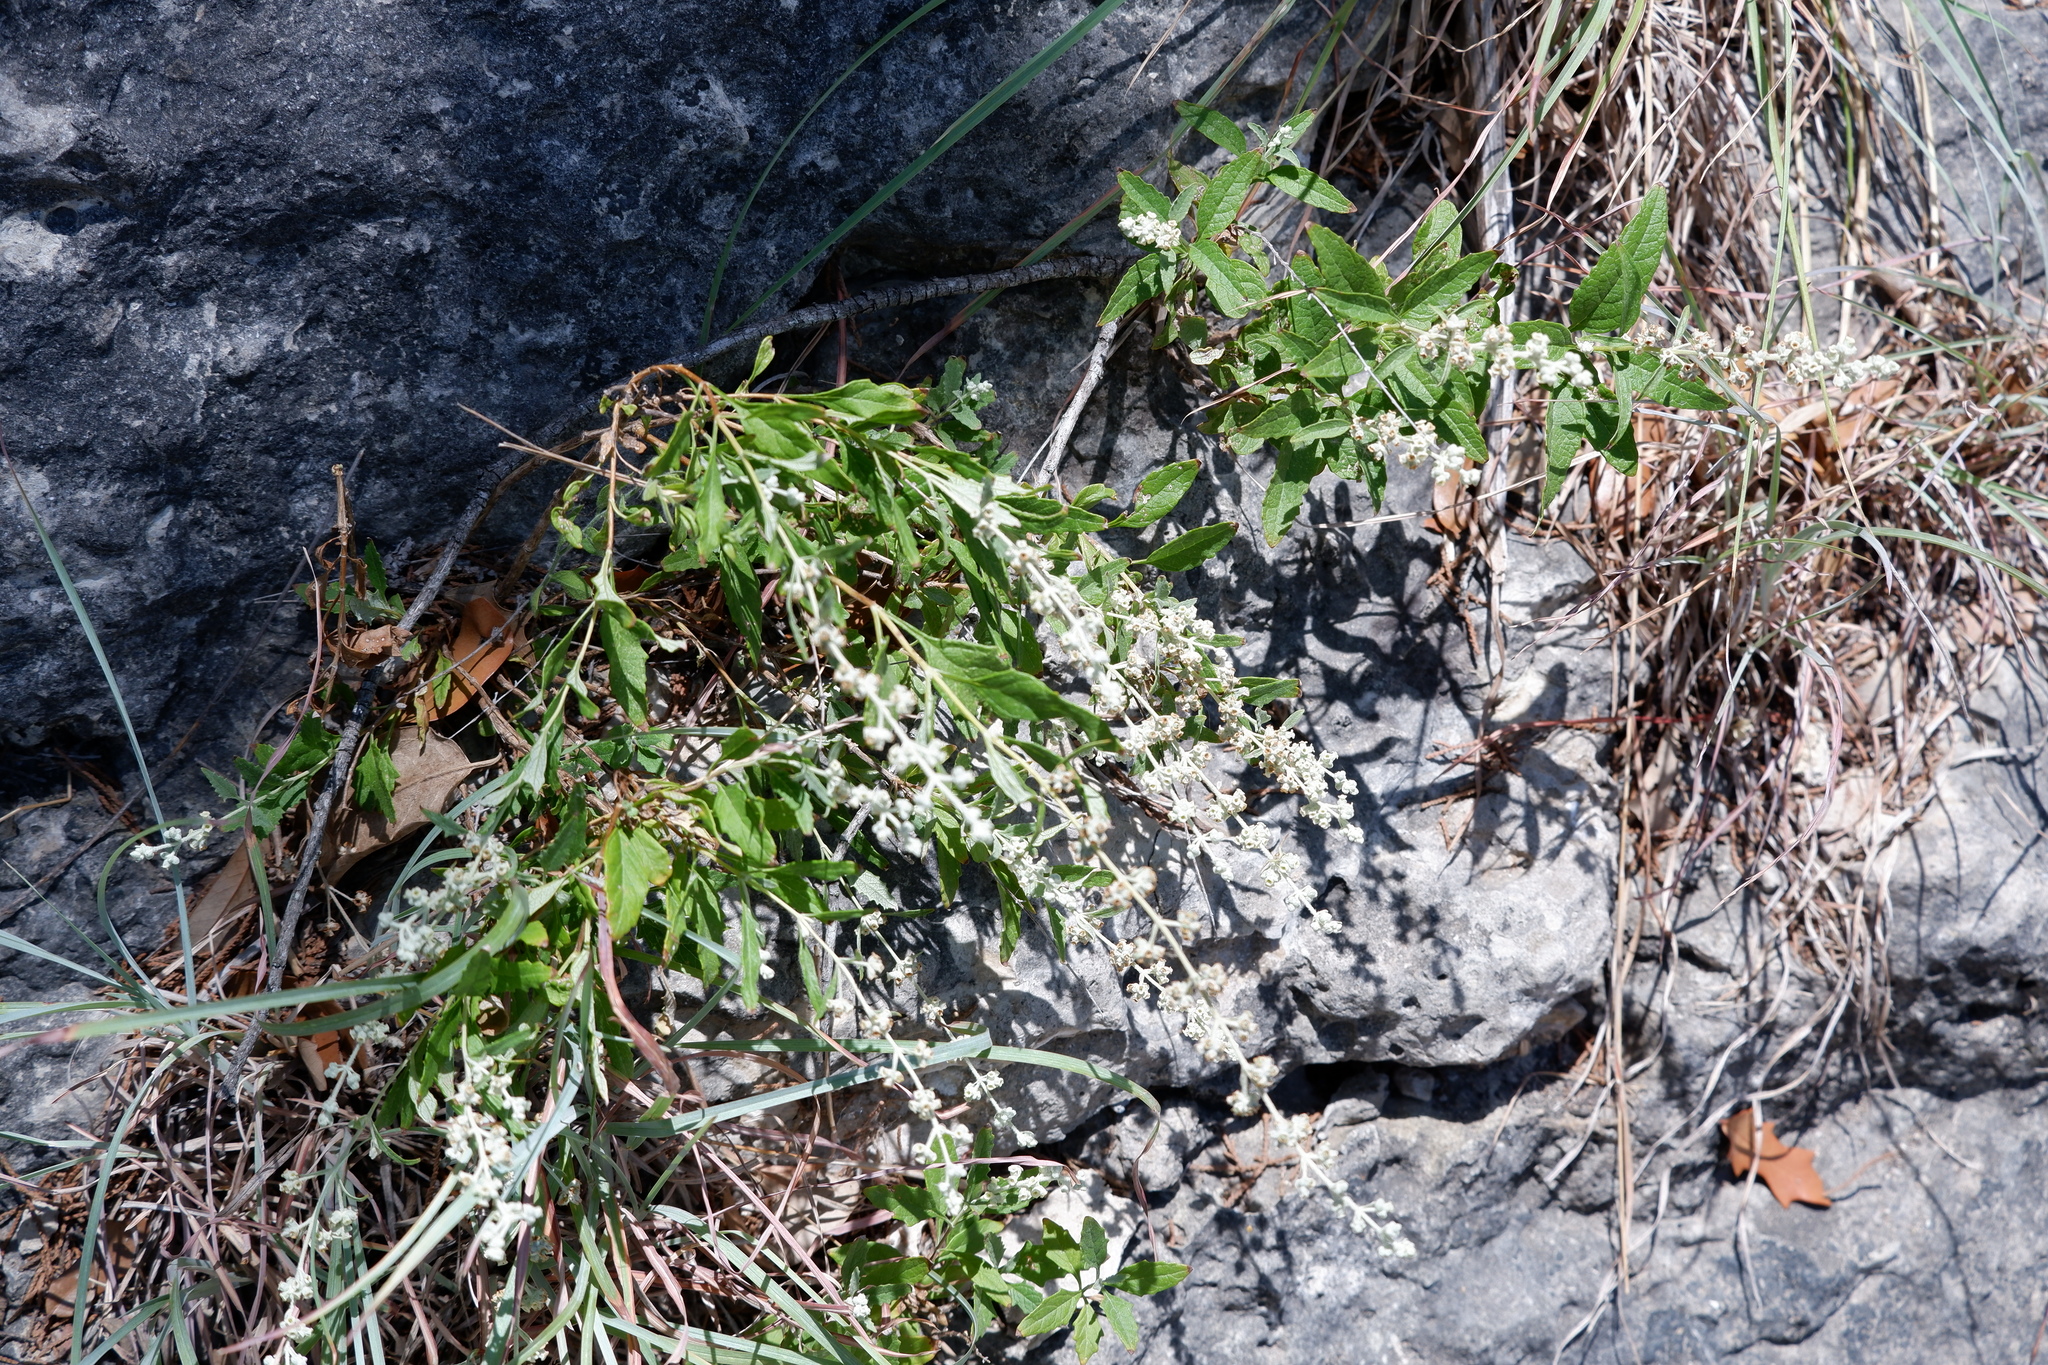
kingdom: Plantae
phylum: Tracheophyta
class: Magnoliopsida
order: Lamiales
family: Scrophulariaceae
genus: Buddleja
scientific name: Buddleja racemosa
